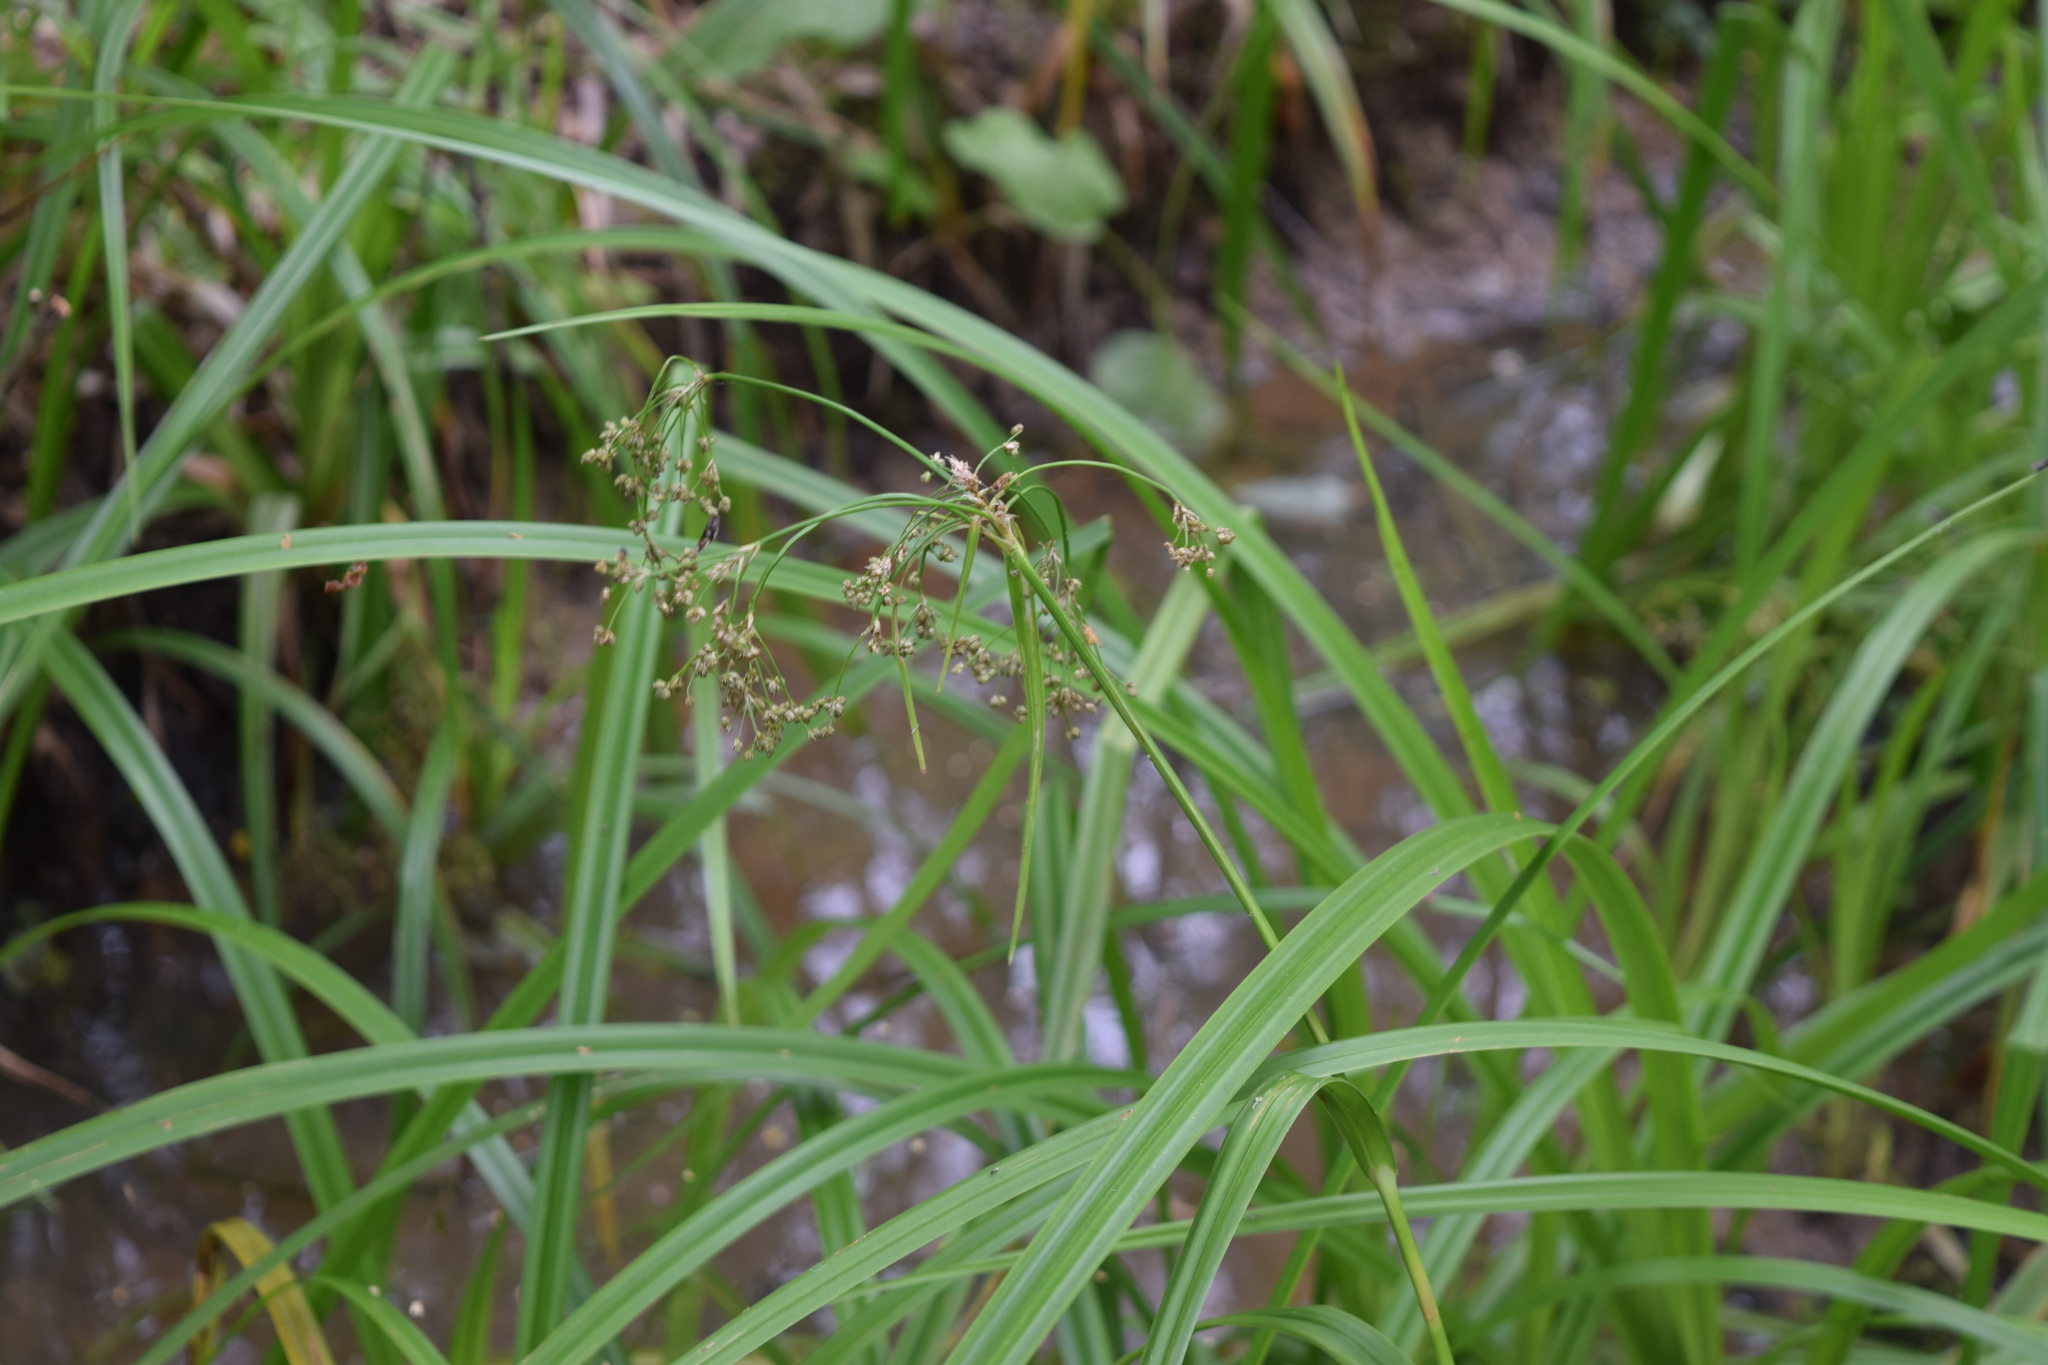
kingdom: Plantae
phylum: Tracheophyta
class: Liliopsida
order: Poales
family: Cyperaceae
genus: Scirpus
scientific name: Scirpus sylvaticus
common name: Wood club-rush
